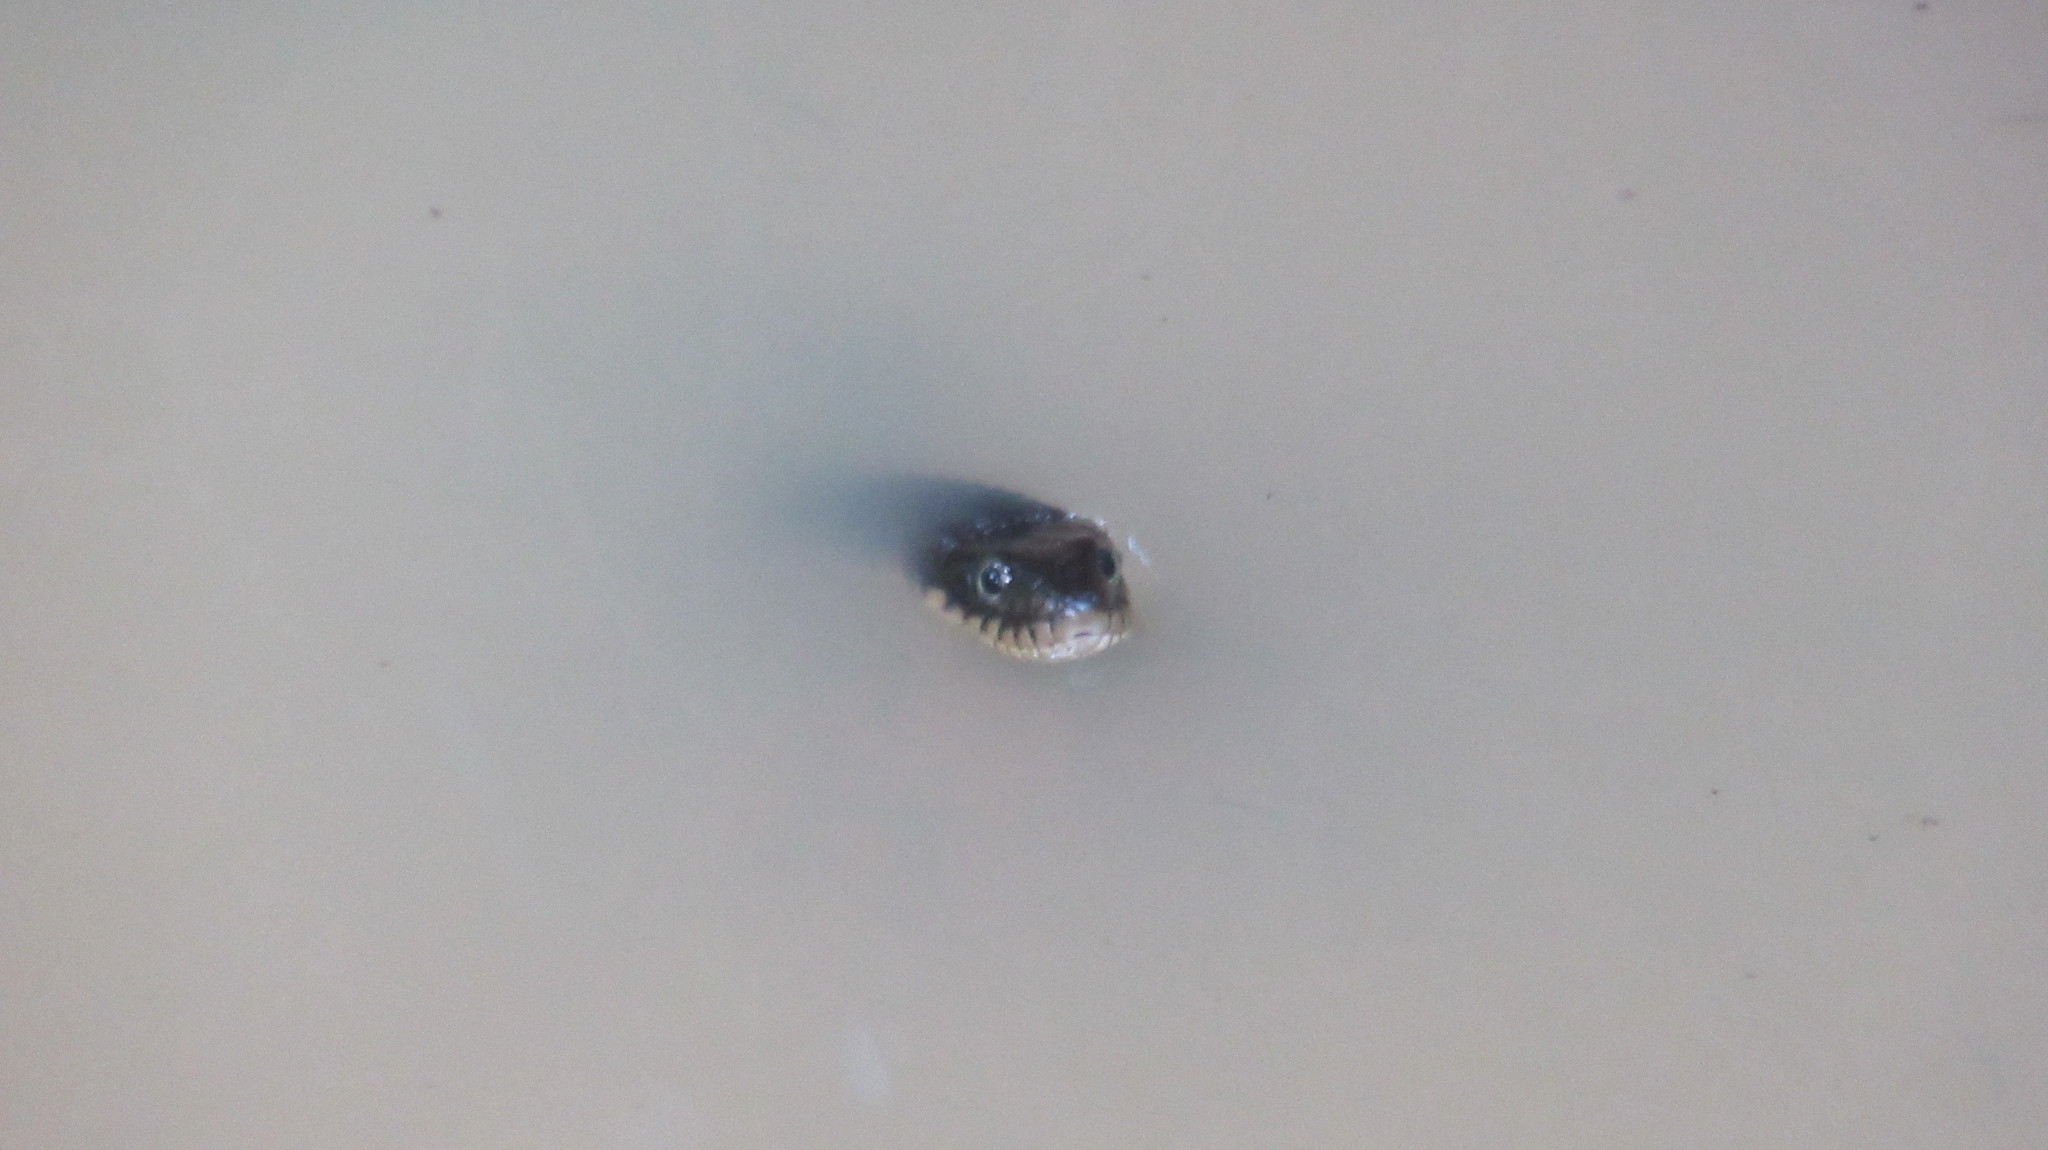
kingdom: Animalia
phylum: Chordata
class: Squamata
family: Colubridae
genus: Nerodia
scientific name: Nerodia erythrogaster
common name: Plainbelly water snake
